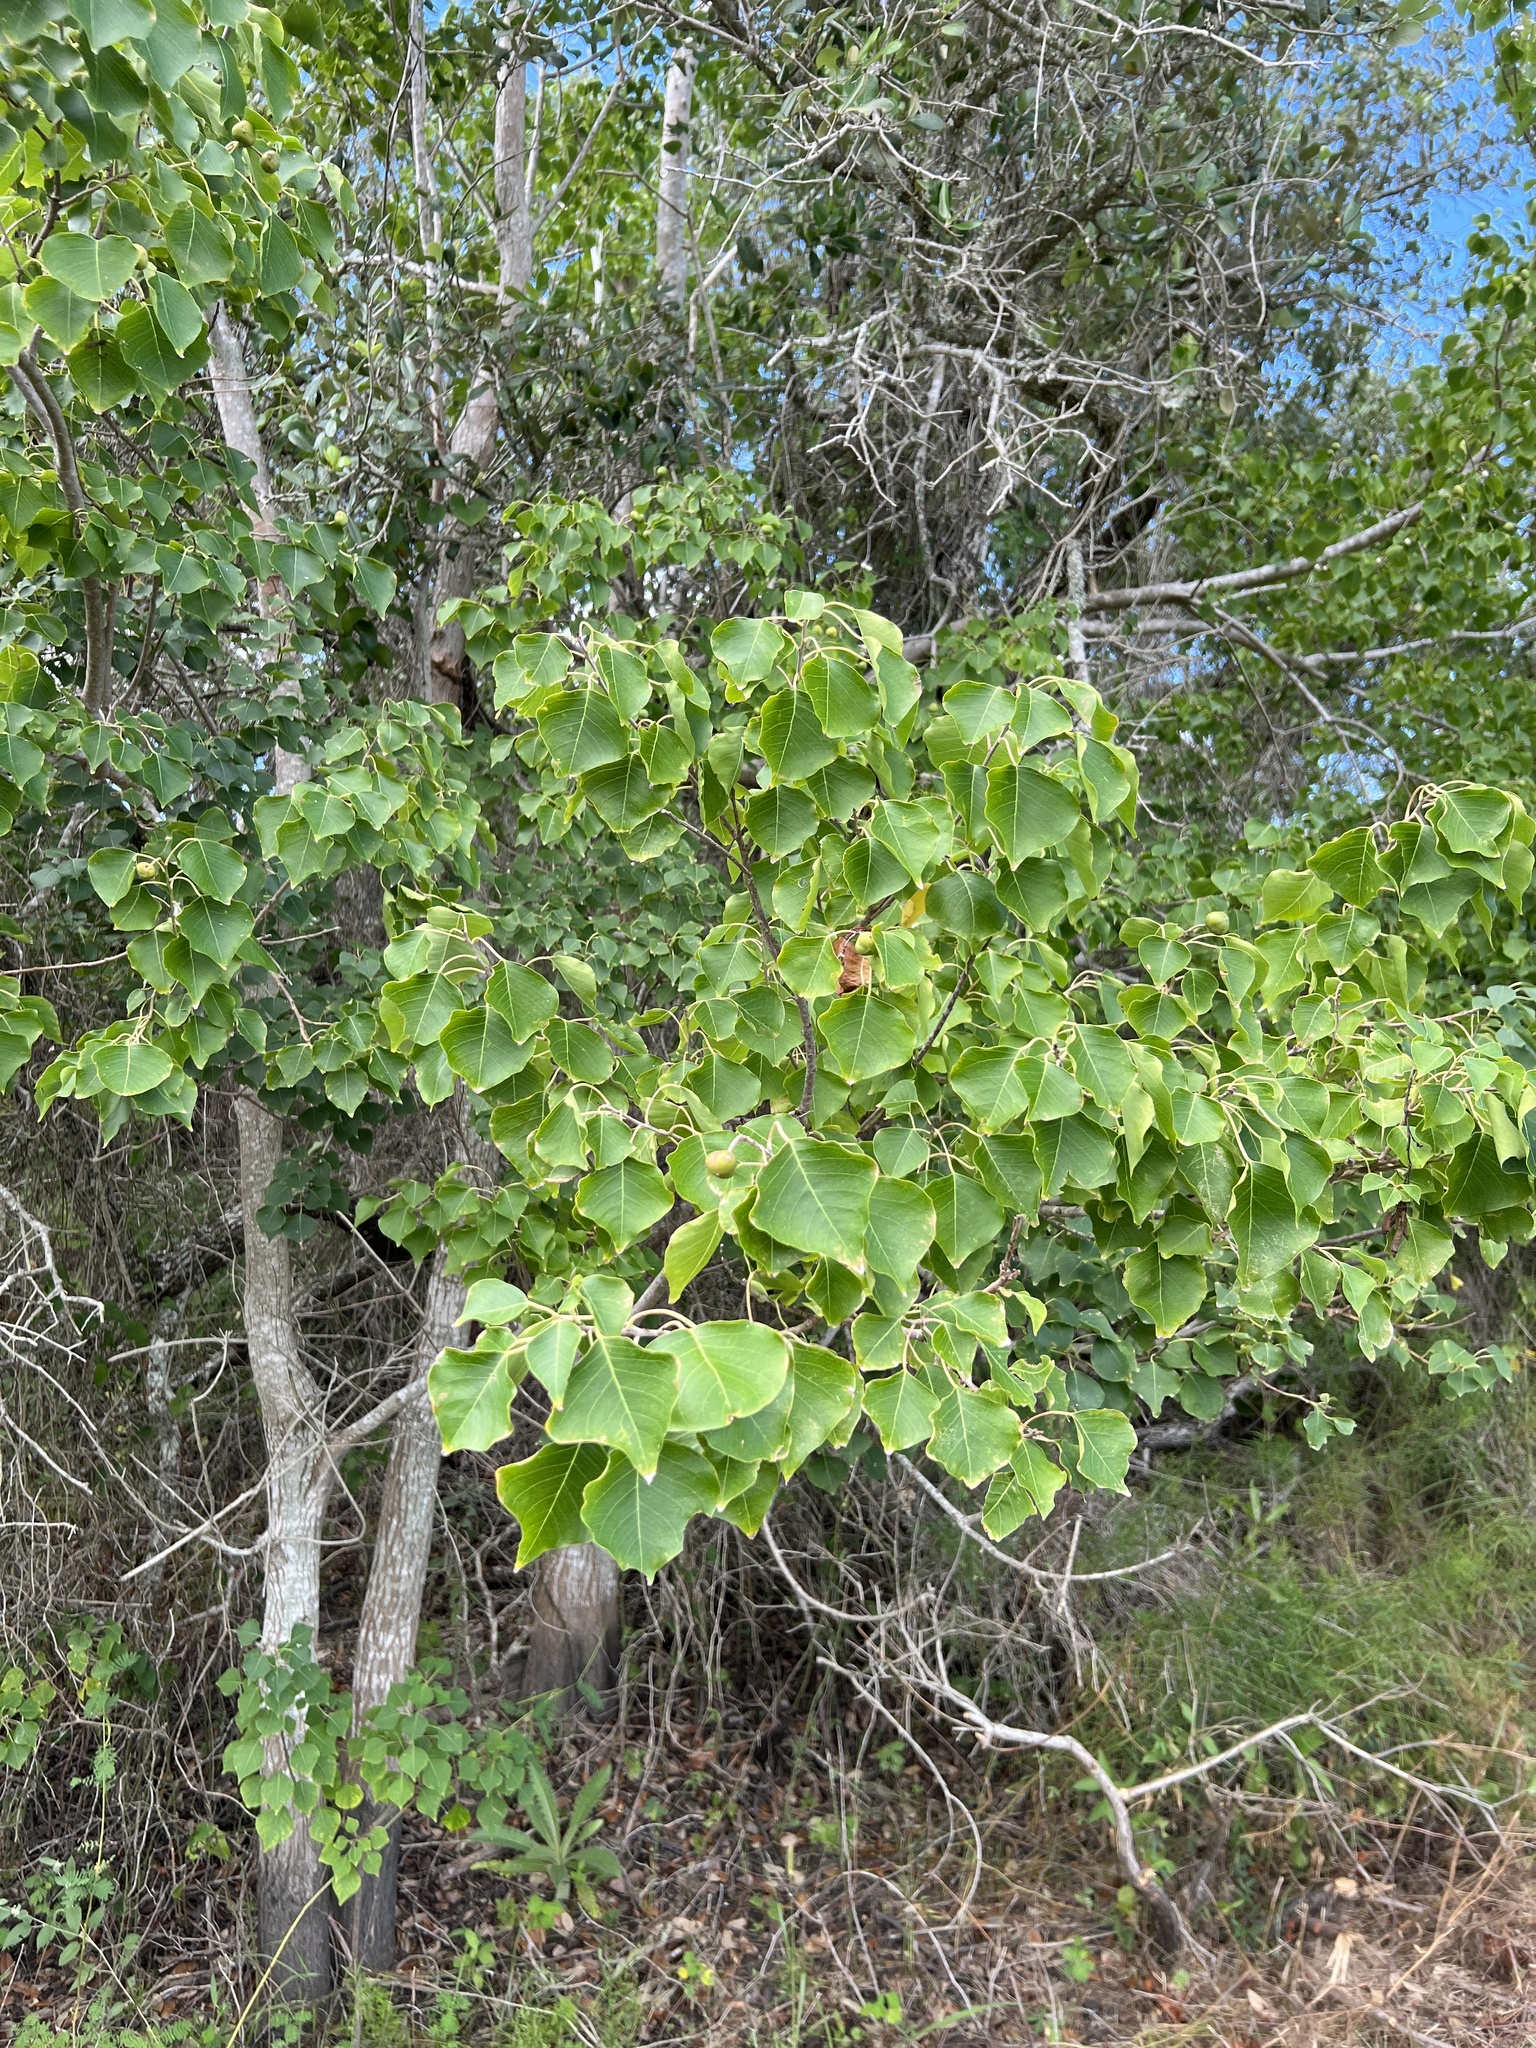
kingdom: Plantae
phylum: Tracheophyta
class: Magnoliopsida
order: Malpighiales
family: Euphorbiaceae
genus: Triadica
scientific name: Triadica sebifera
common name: Chinese tallow
